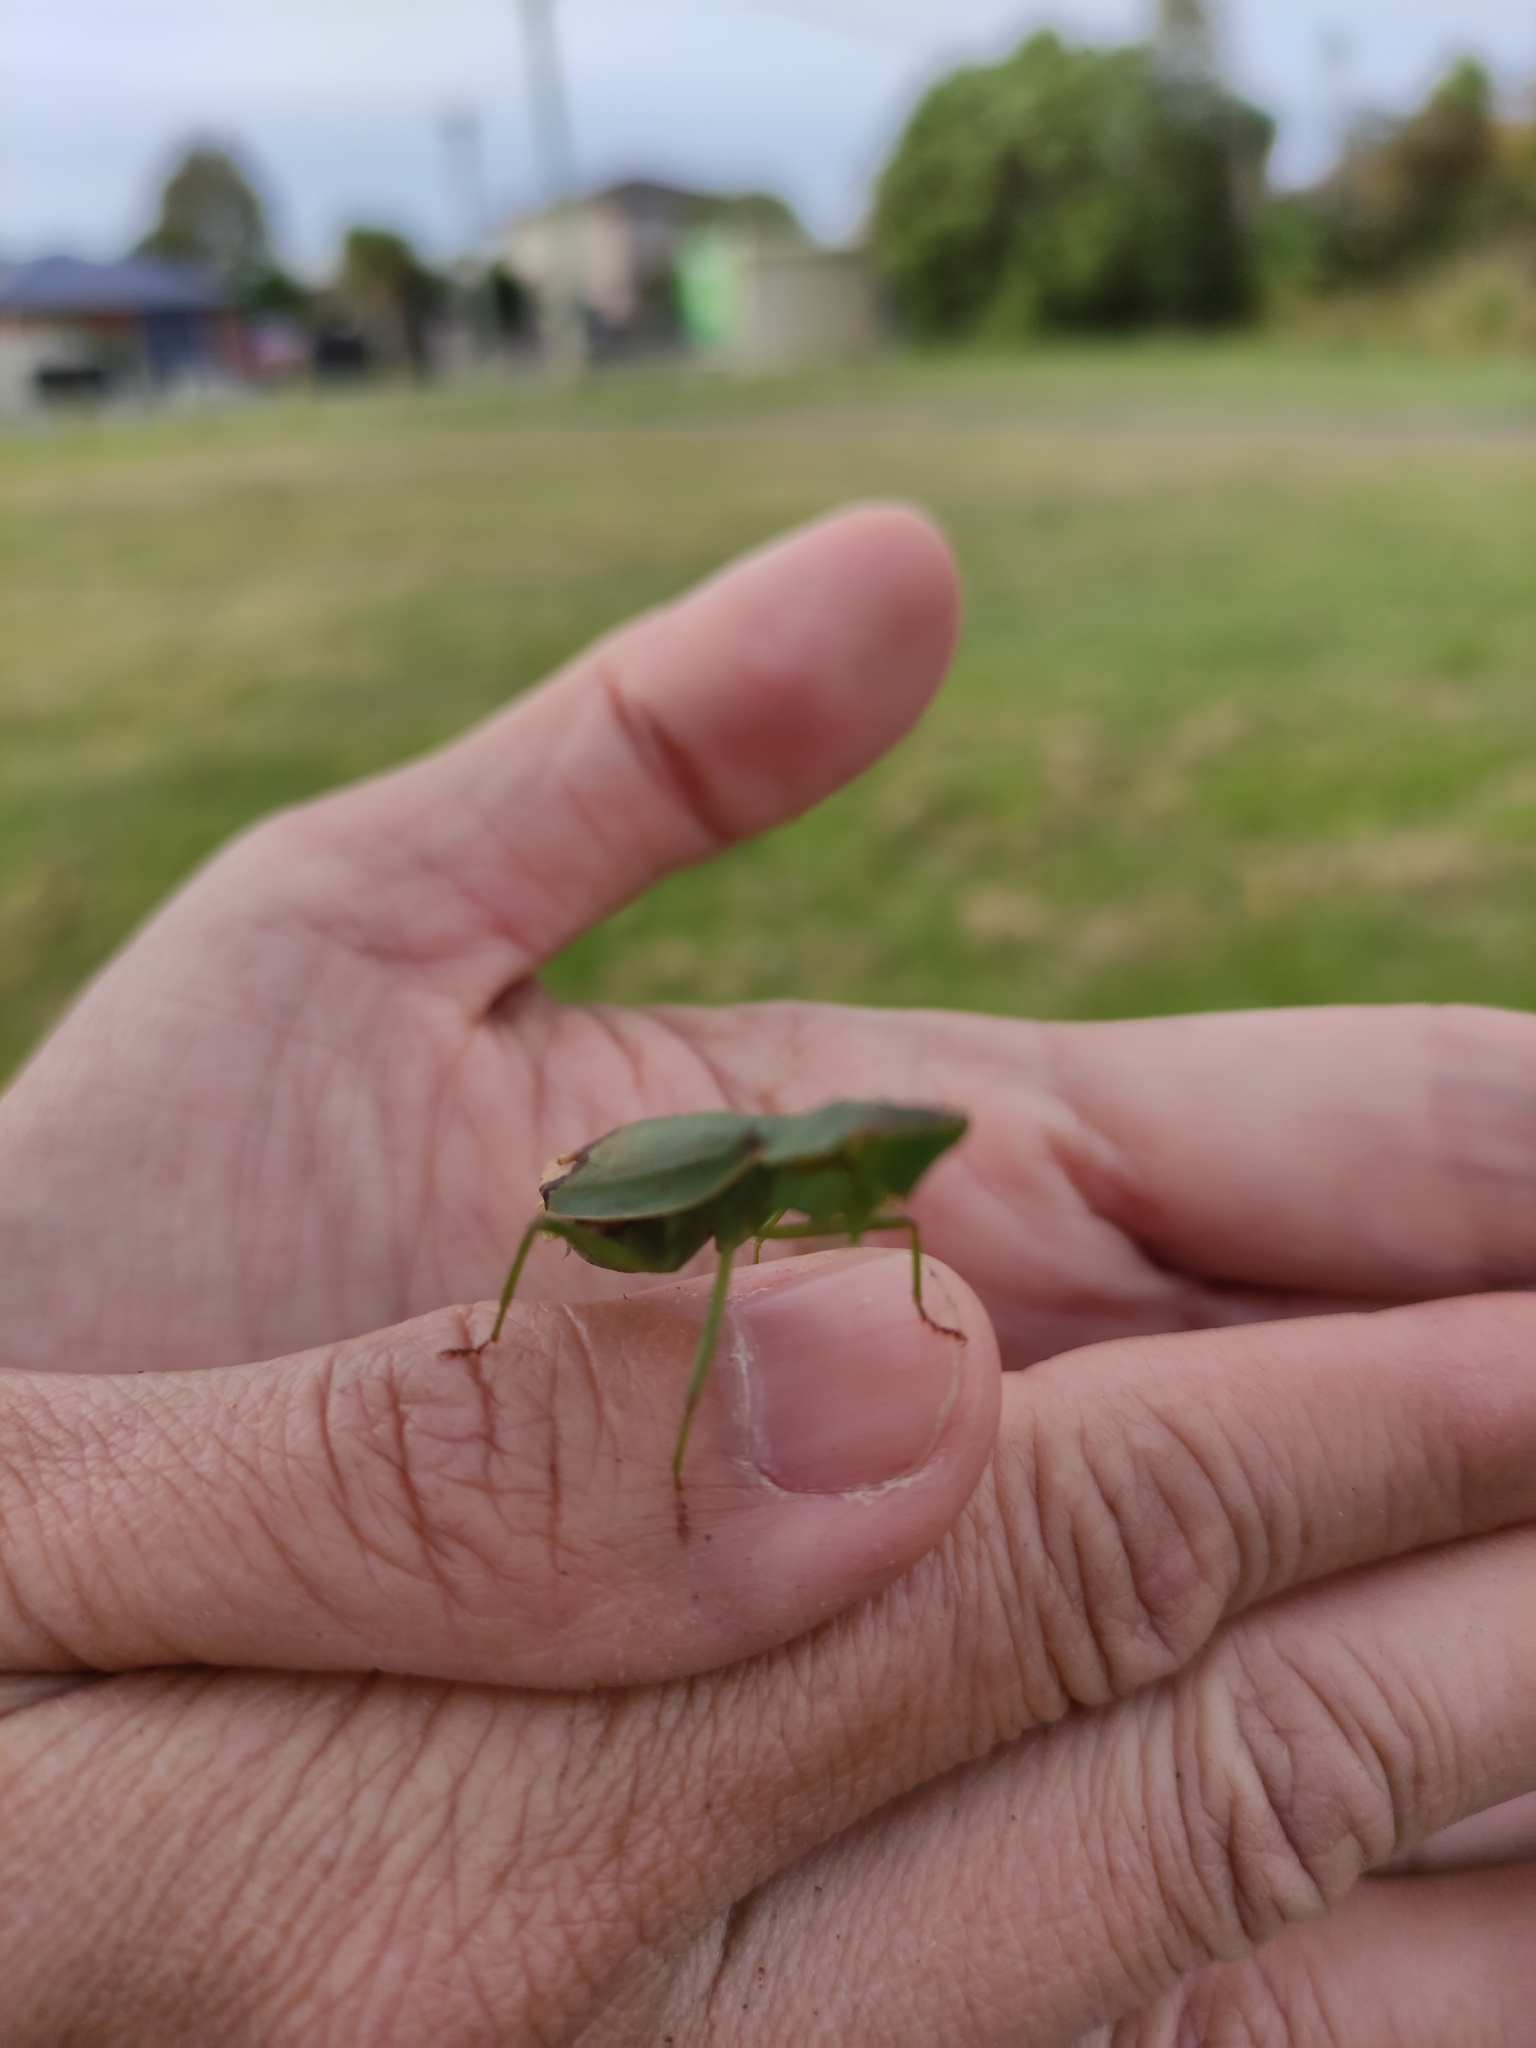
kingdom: Animalia
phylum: Arthropoda
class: Insecta
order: Mantodea
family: Mantidae
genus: Orthodera
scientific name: Orthodera novaezealandiae
